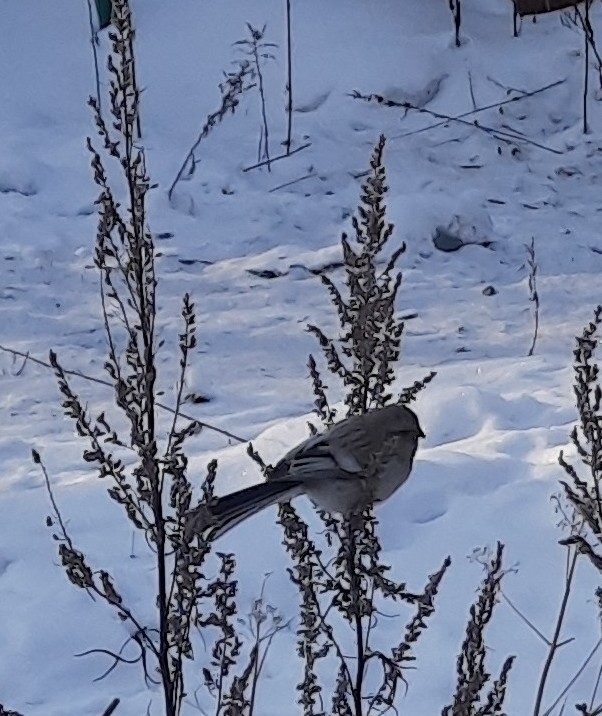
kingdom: Animalia
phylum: Chordata
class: Aves
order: Passeriformes
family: Fringillidae
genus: Carpodacus
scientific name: Carpodacus sibiricus
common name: Long-tailed rosefinch
